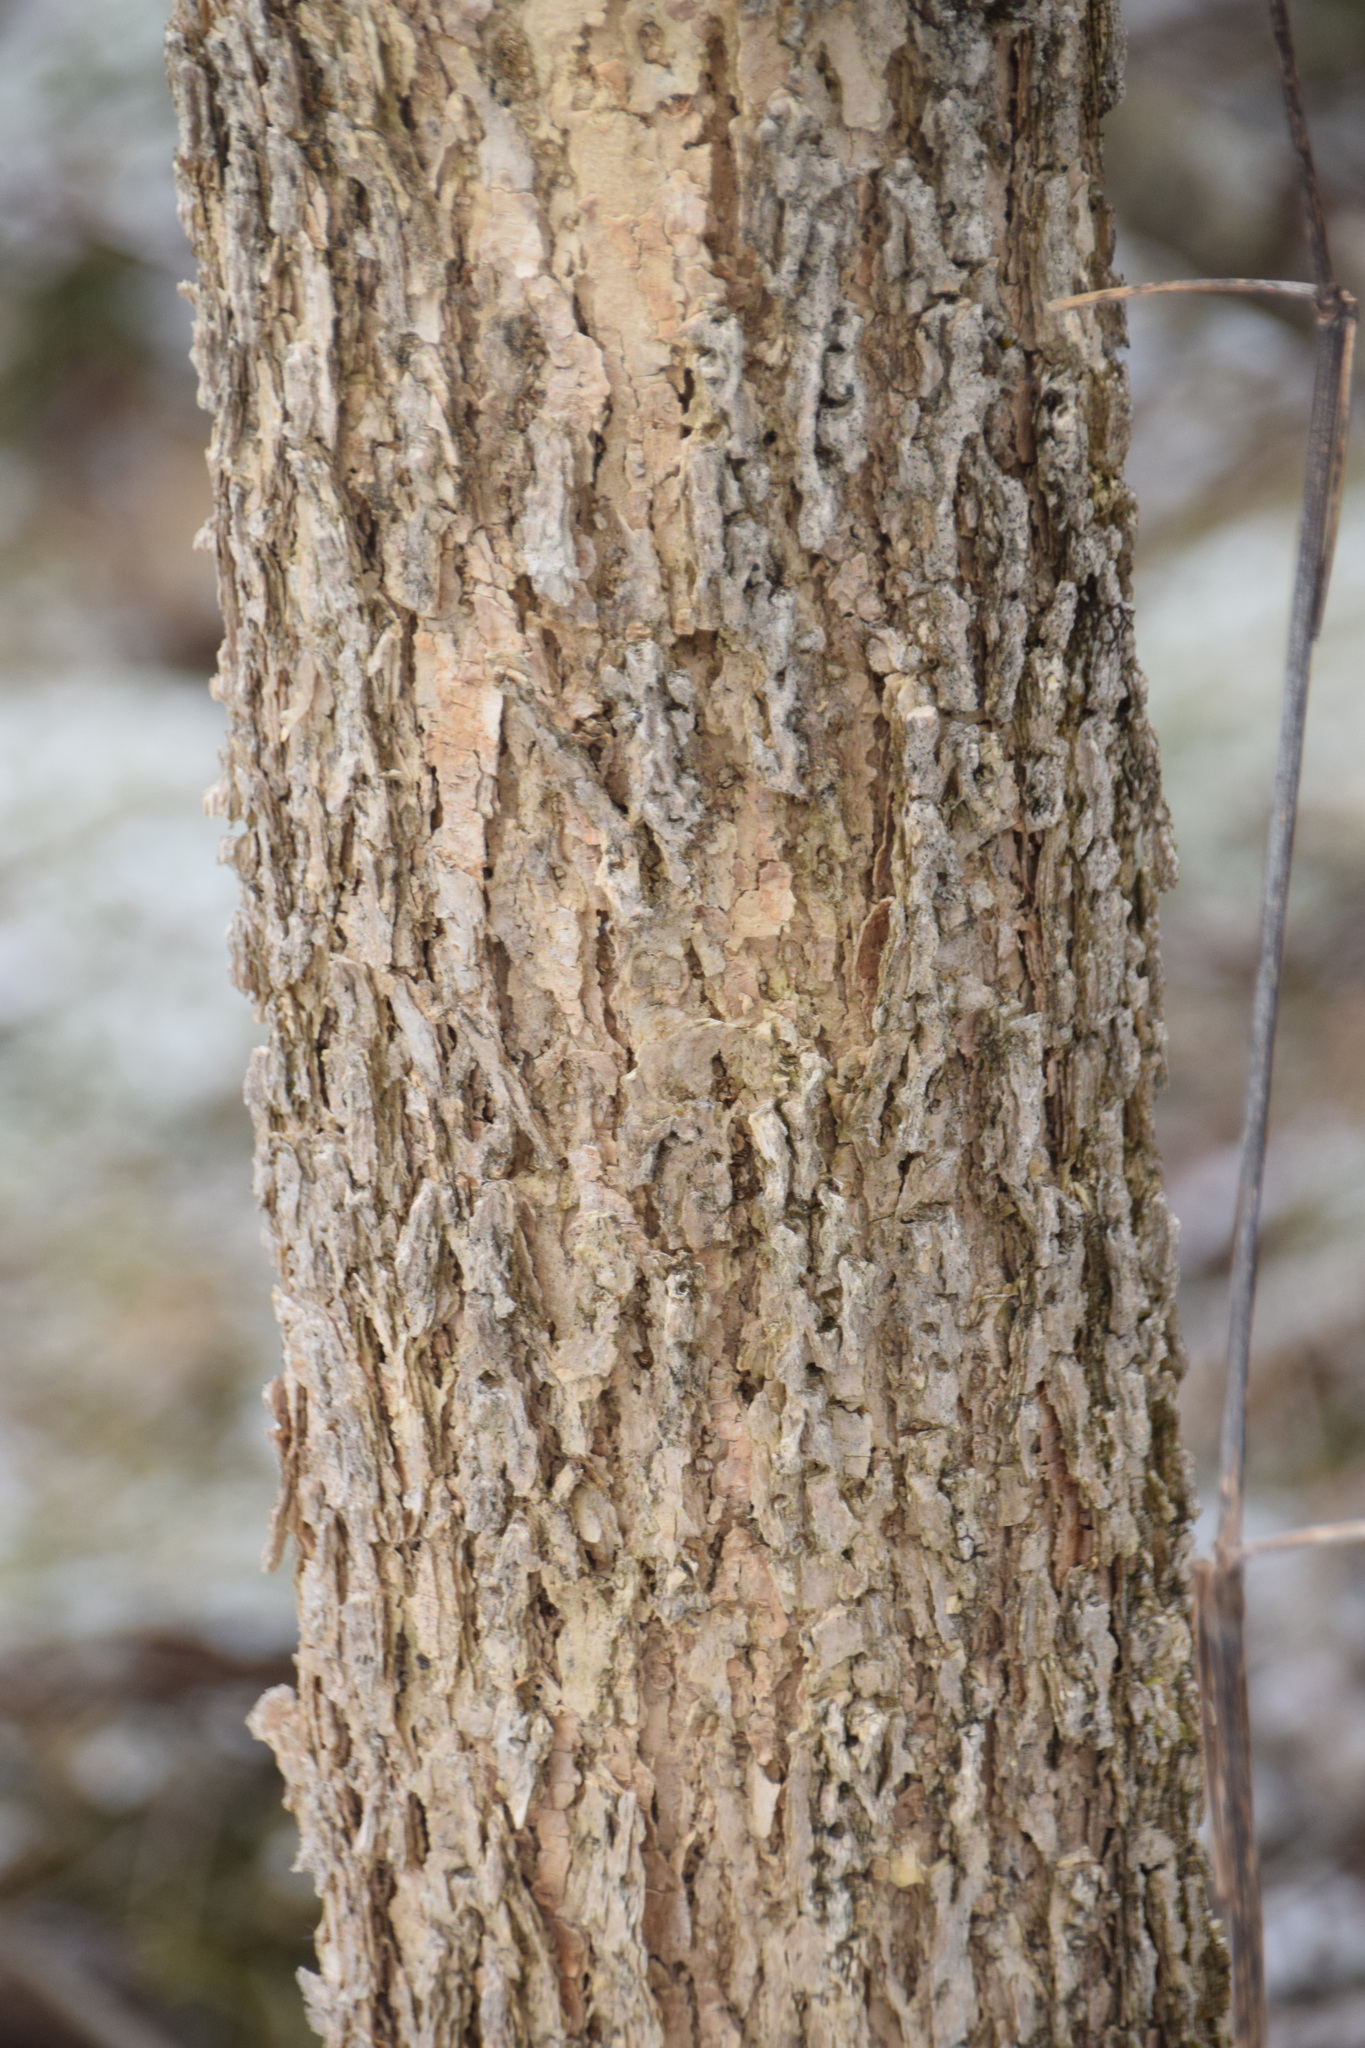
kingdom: Plantae
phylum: Tracheophyta
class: Magnoliopsida
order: Lamiales
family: Oleaceae
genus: Fraxinus
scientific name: Fraxinus nigra
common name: Black ash
